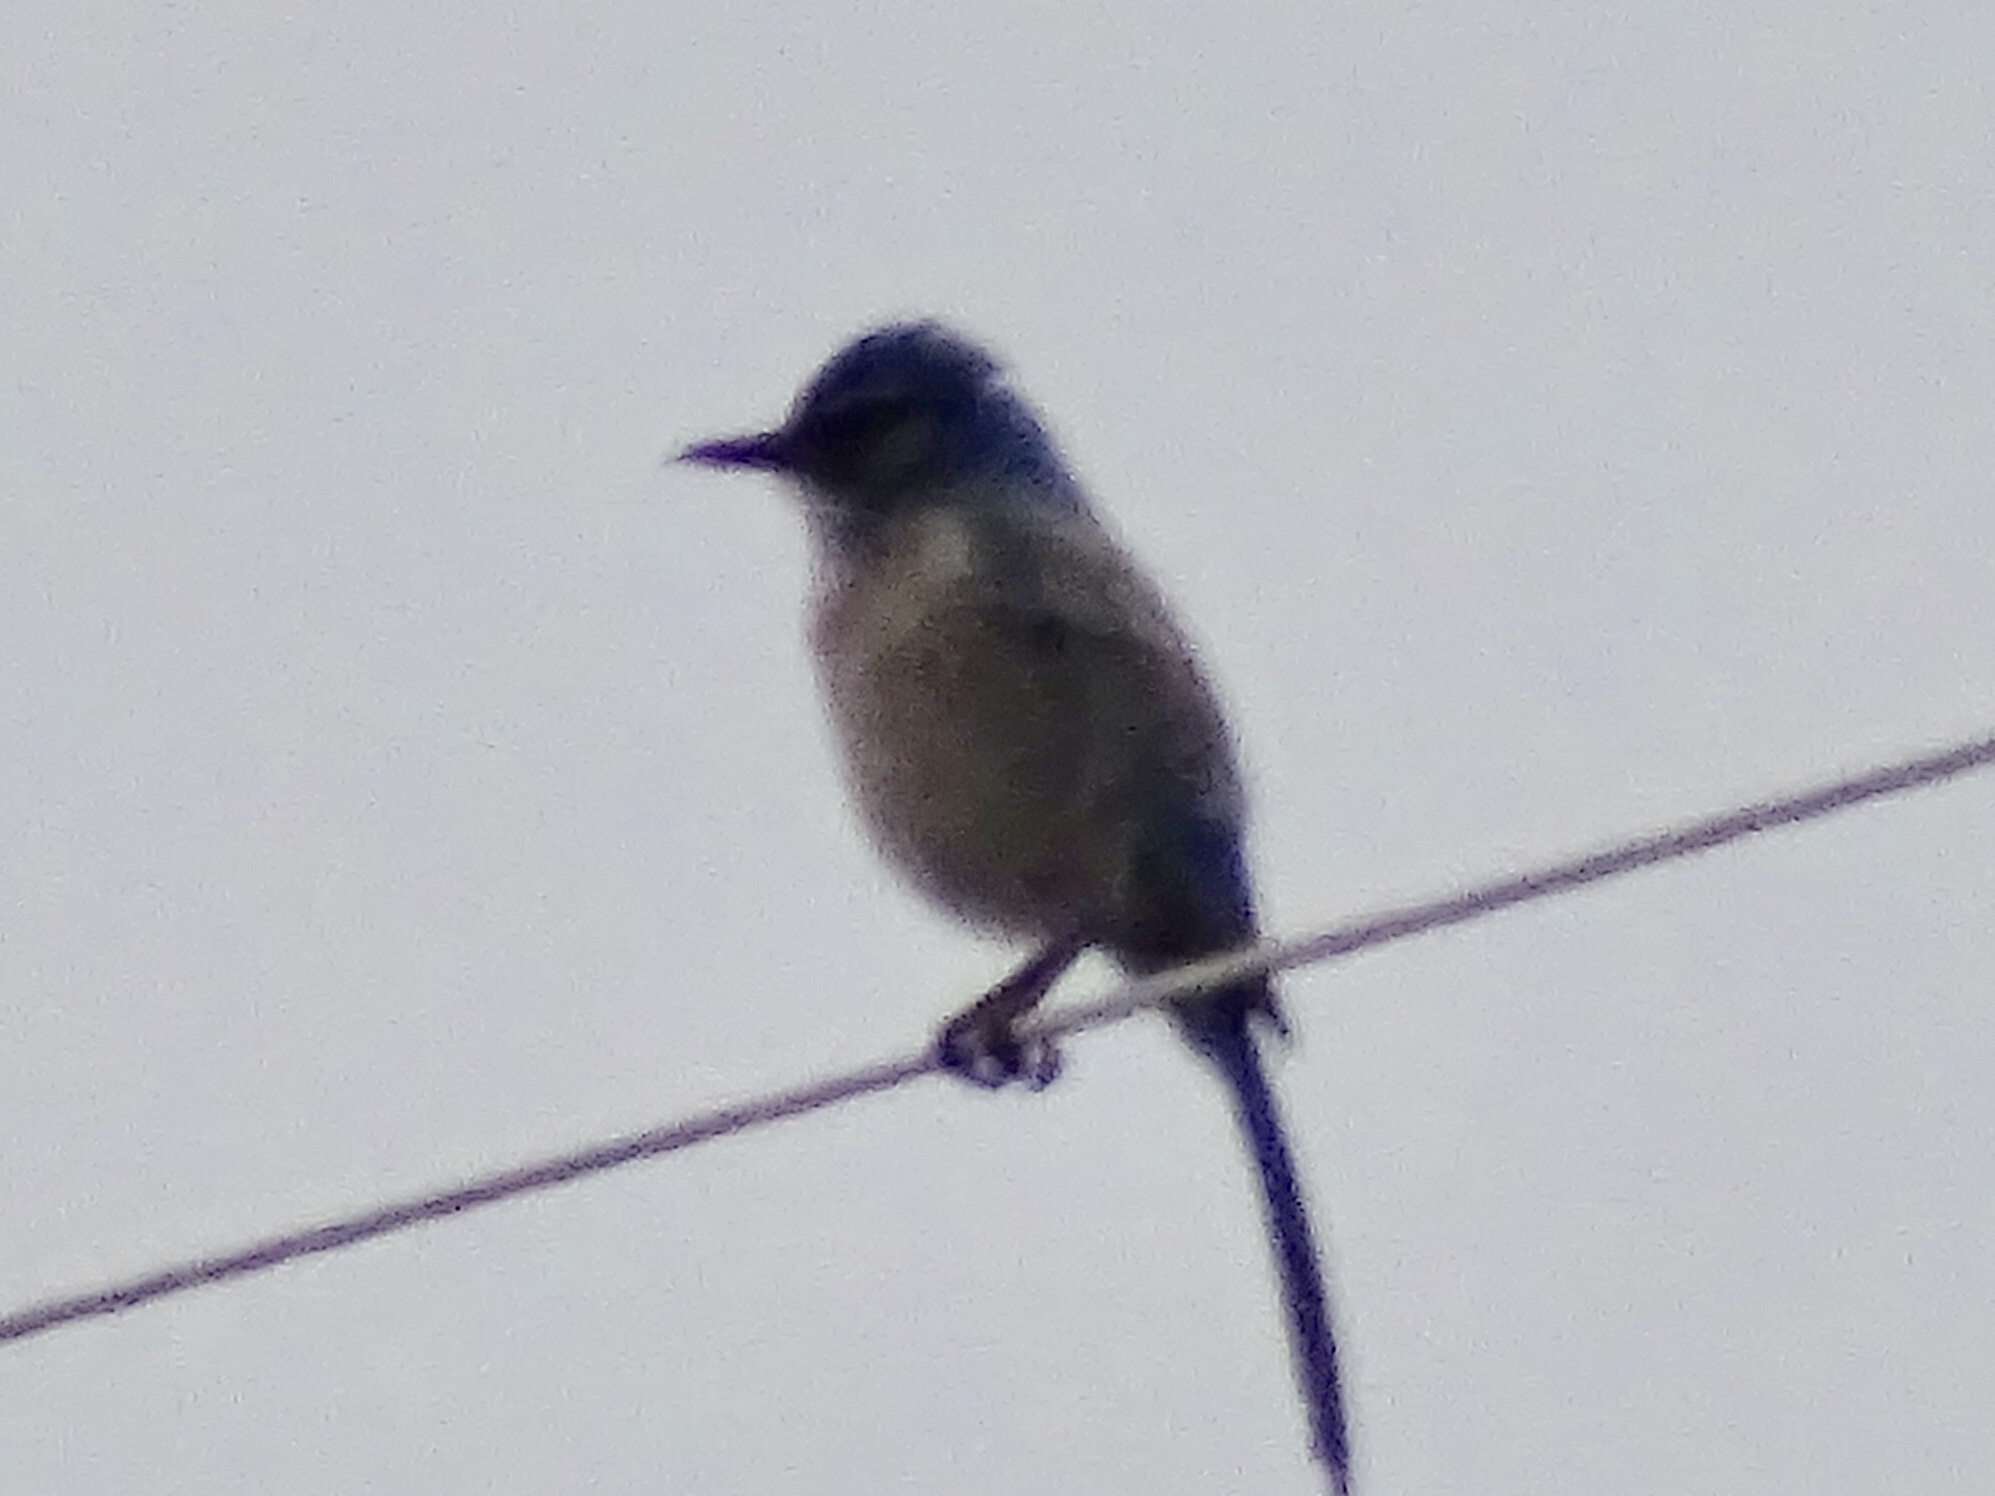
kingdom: Animalia
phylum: Chordata
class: Aves
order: Passeriformes
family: Corvidae
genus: Aphelocoma
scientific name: Aphelocoma woodhouseii
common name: Woodhouse's scrub-jay
